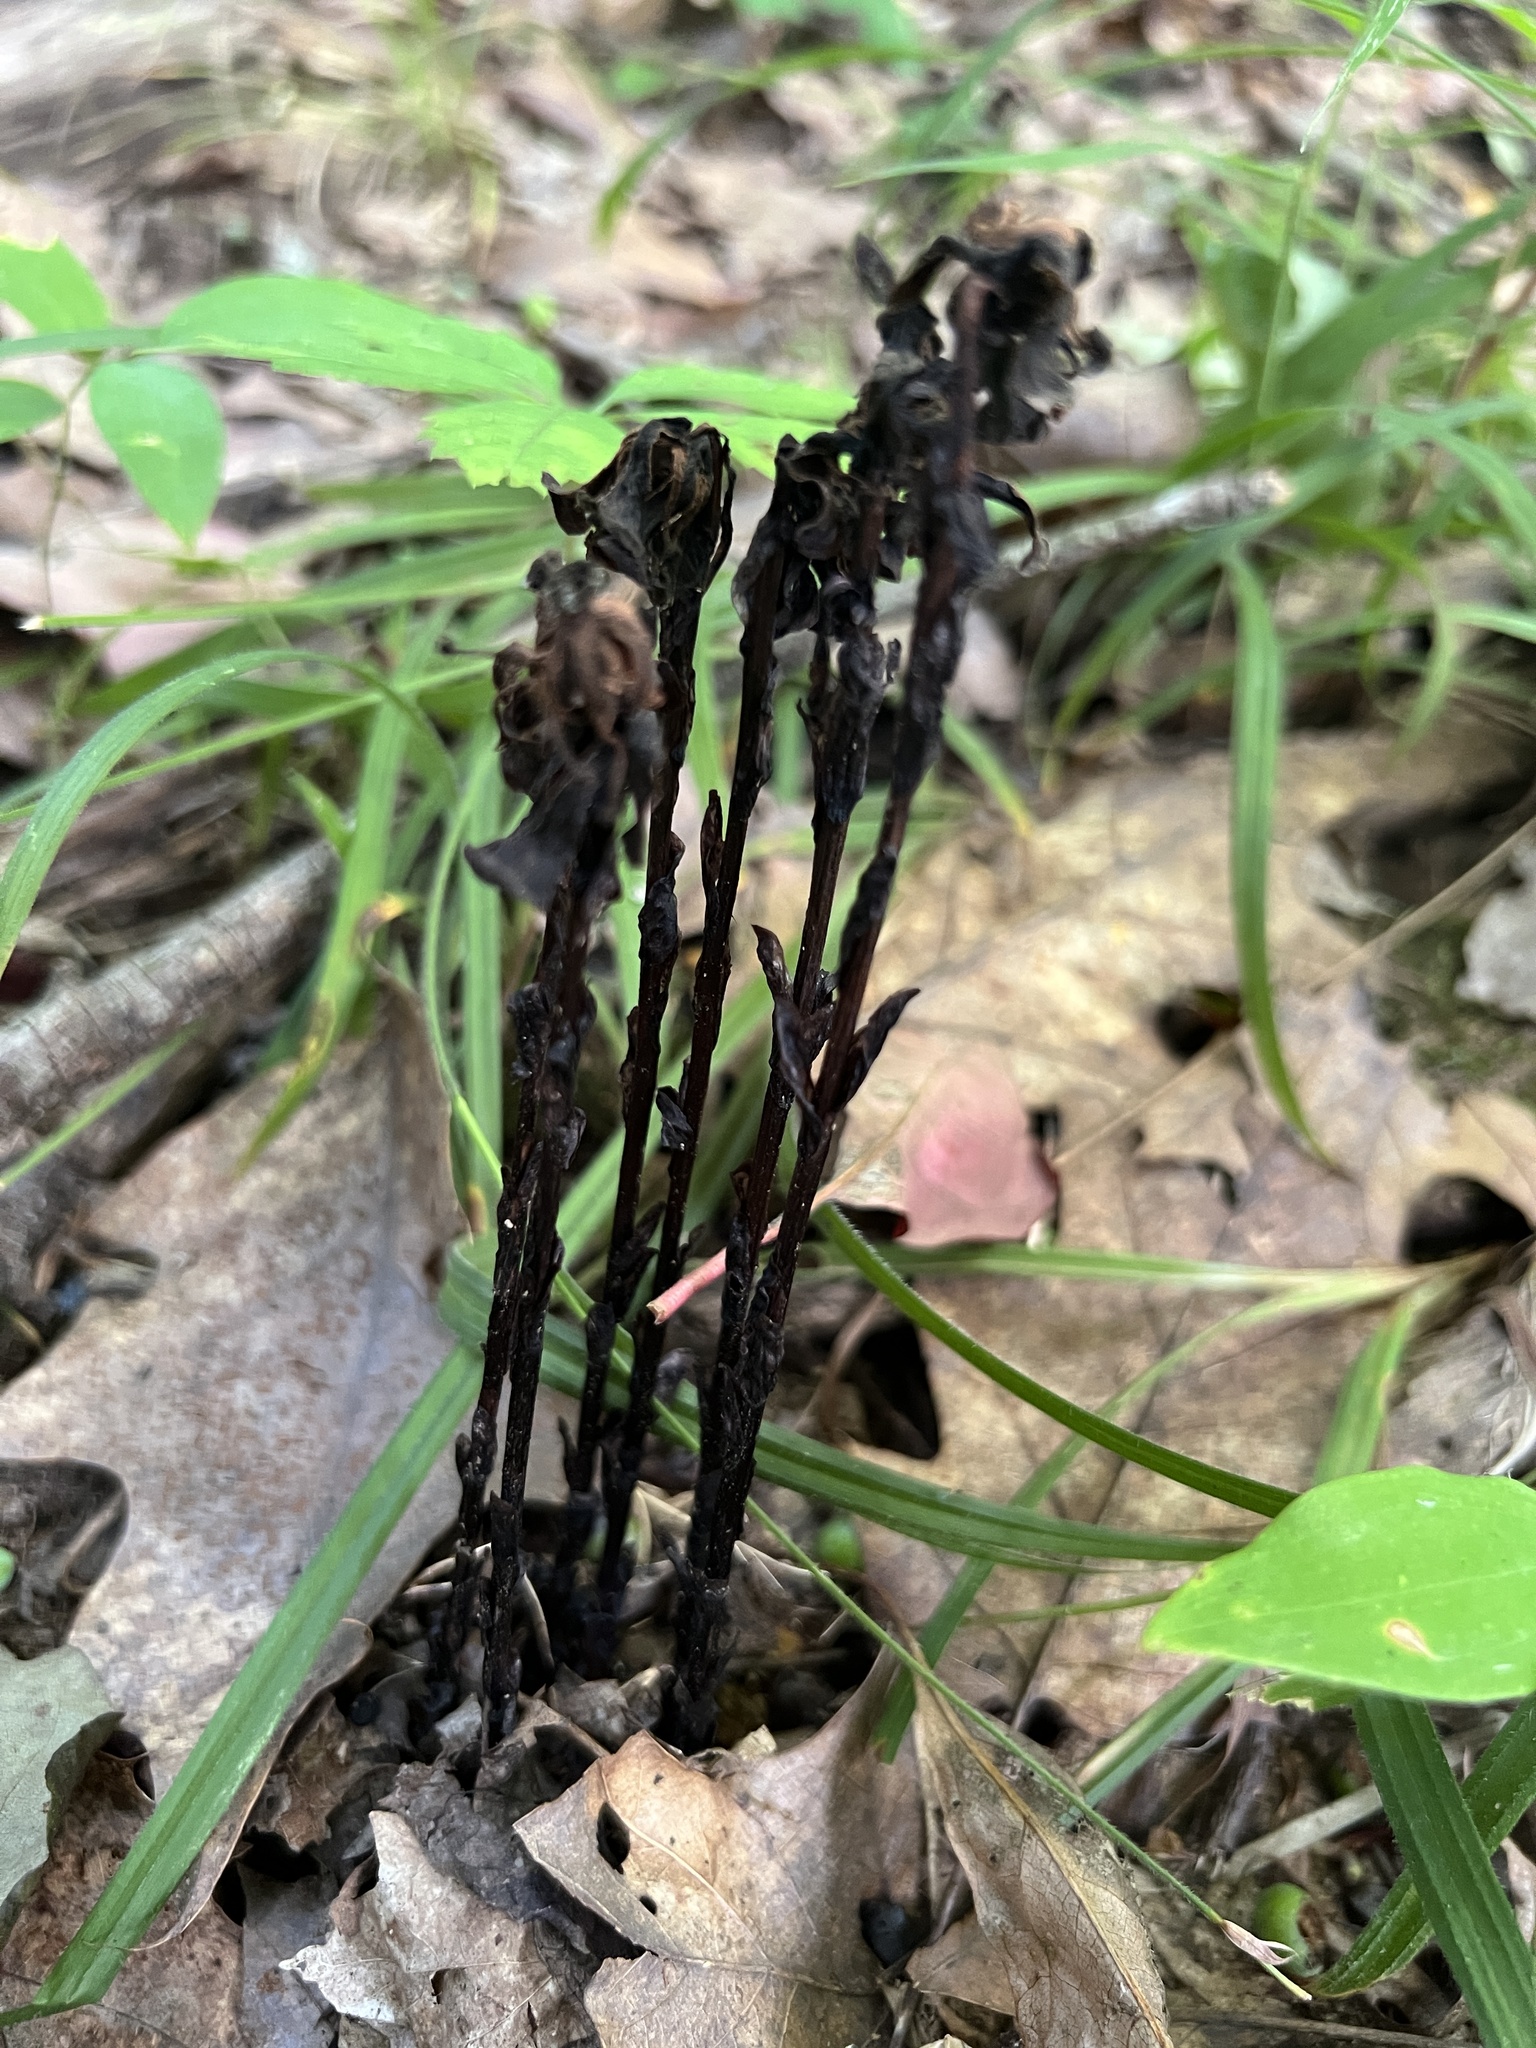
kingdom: Plantae
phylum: Tracheophyta
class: Magnoliopsida
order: Ericales
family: Ericaceae
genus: Monotropa
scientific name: Monotropa uniflora
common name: Convulsion root
